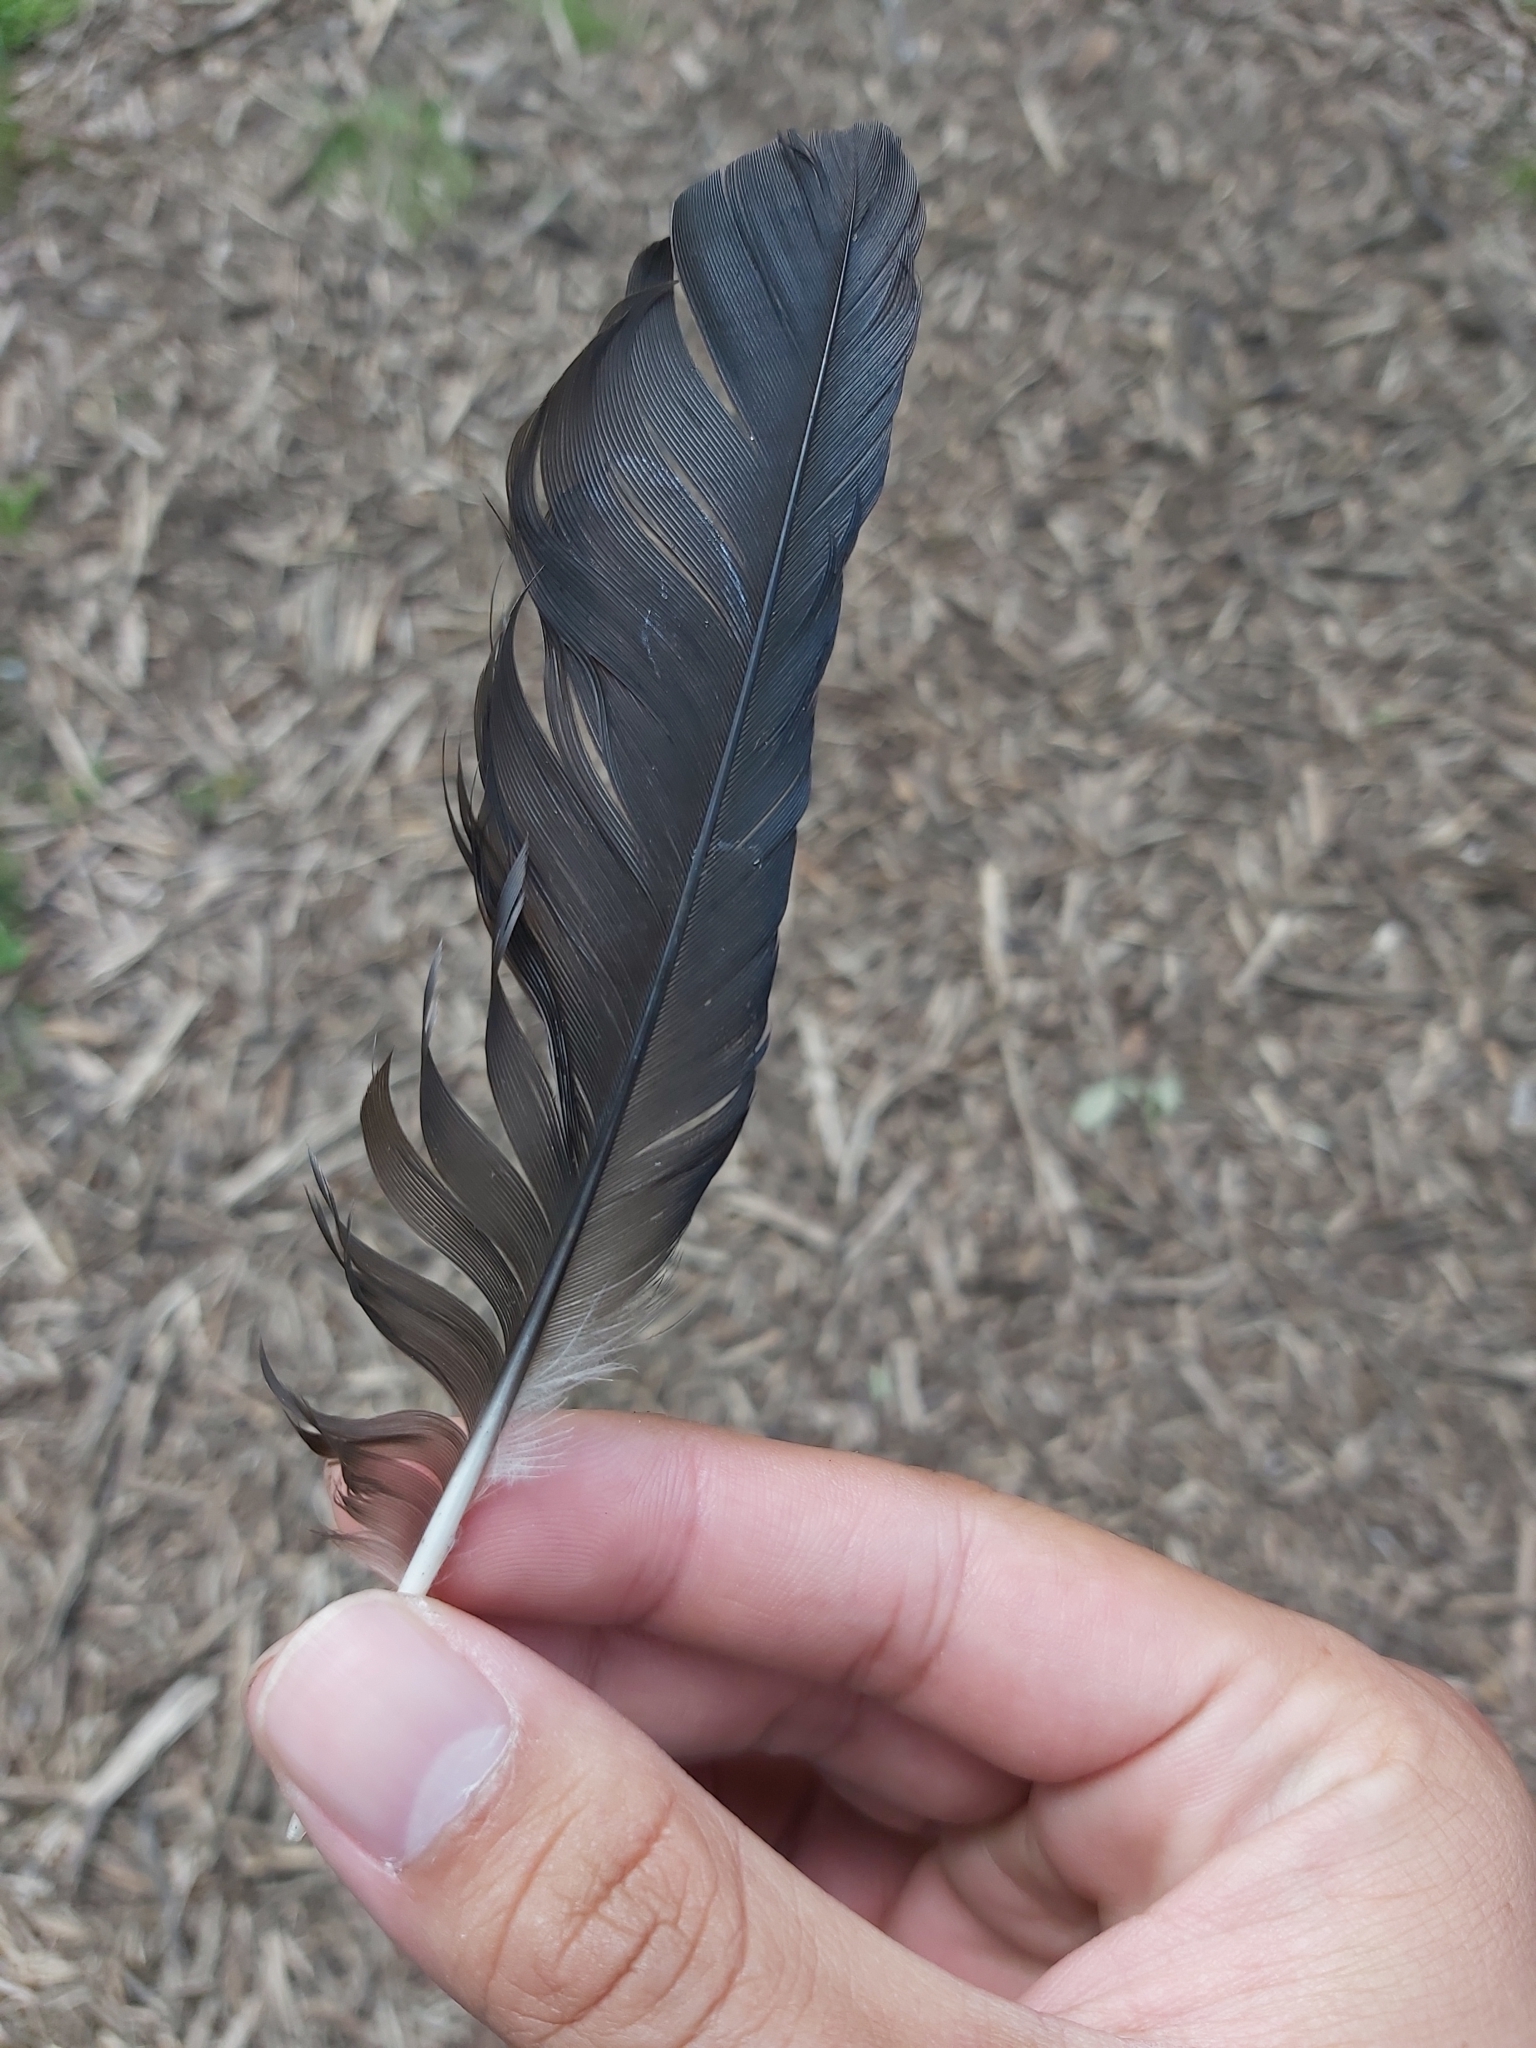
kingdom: Animalia
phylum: Chordata
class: Aves
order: Passeriformes
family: Corvidae
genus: Coloeus
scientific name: Coloeus monedula
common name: Western jackdaw
